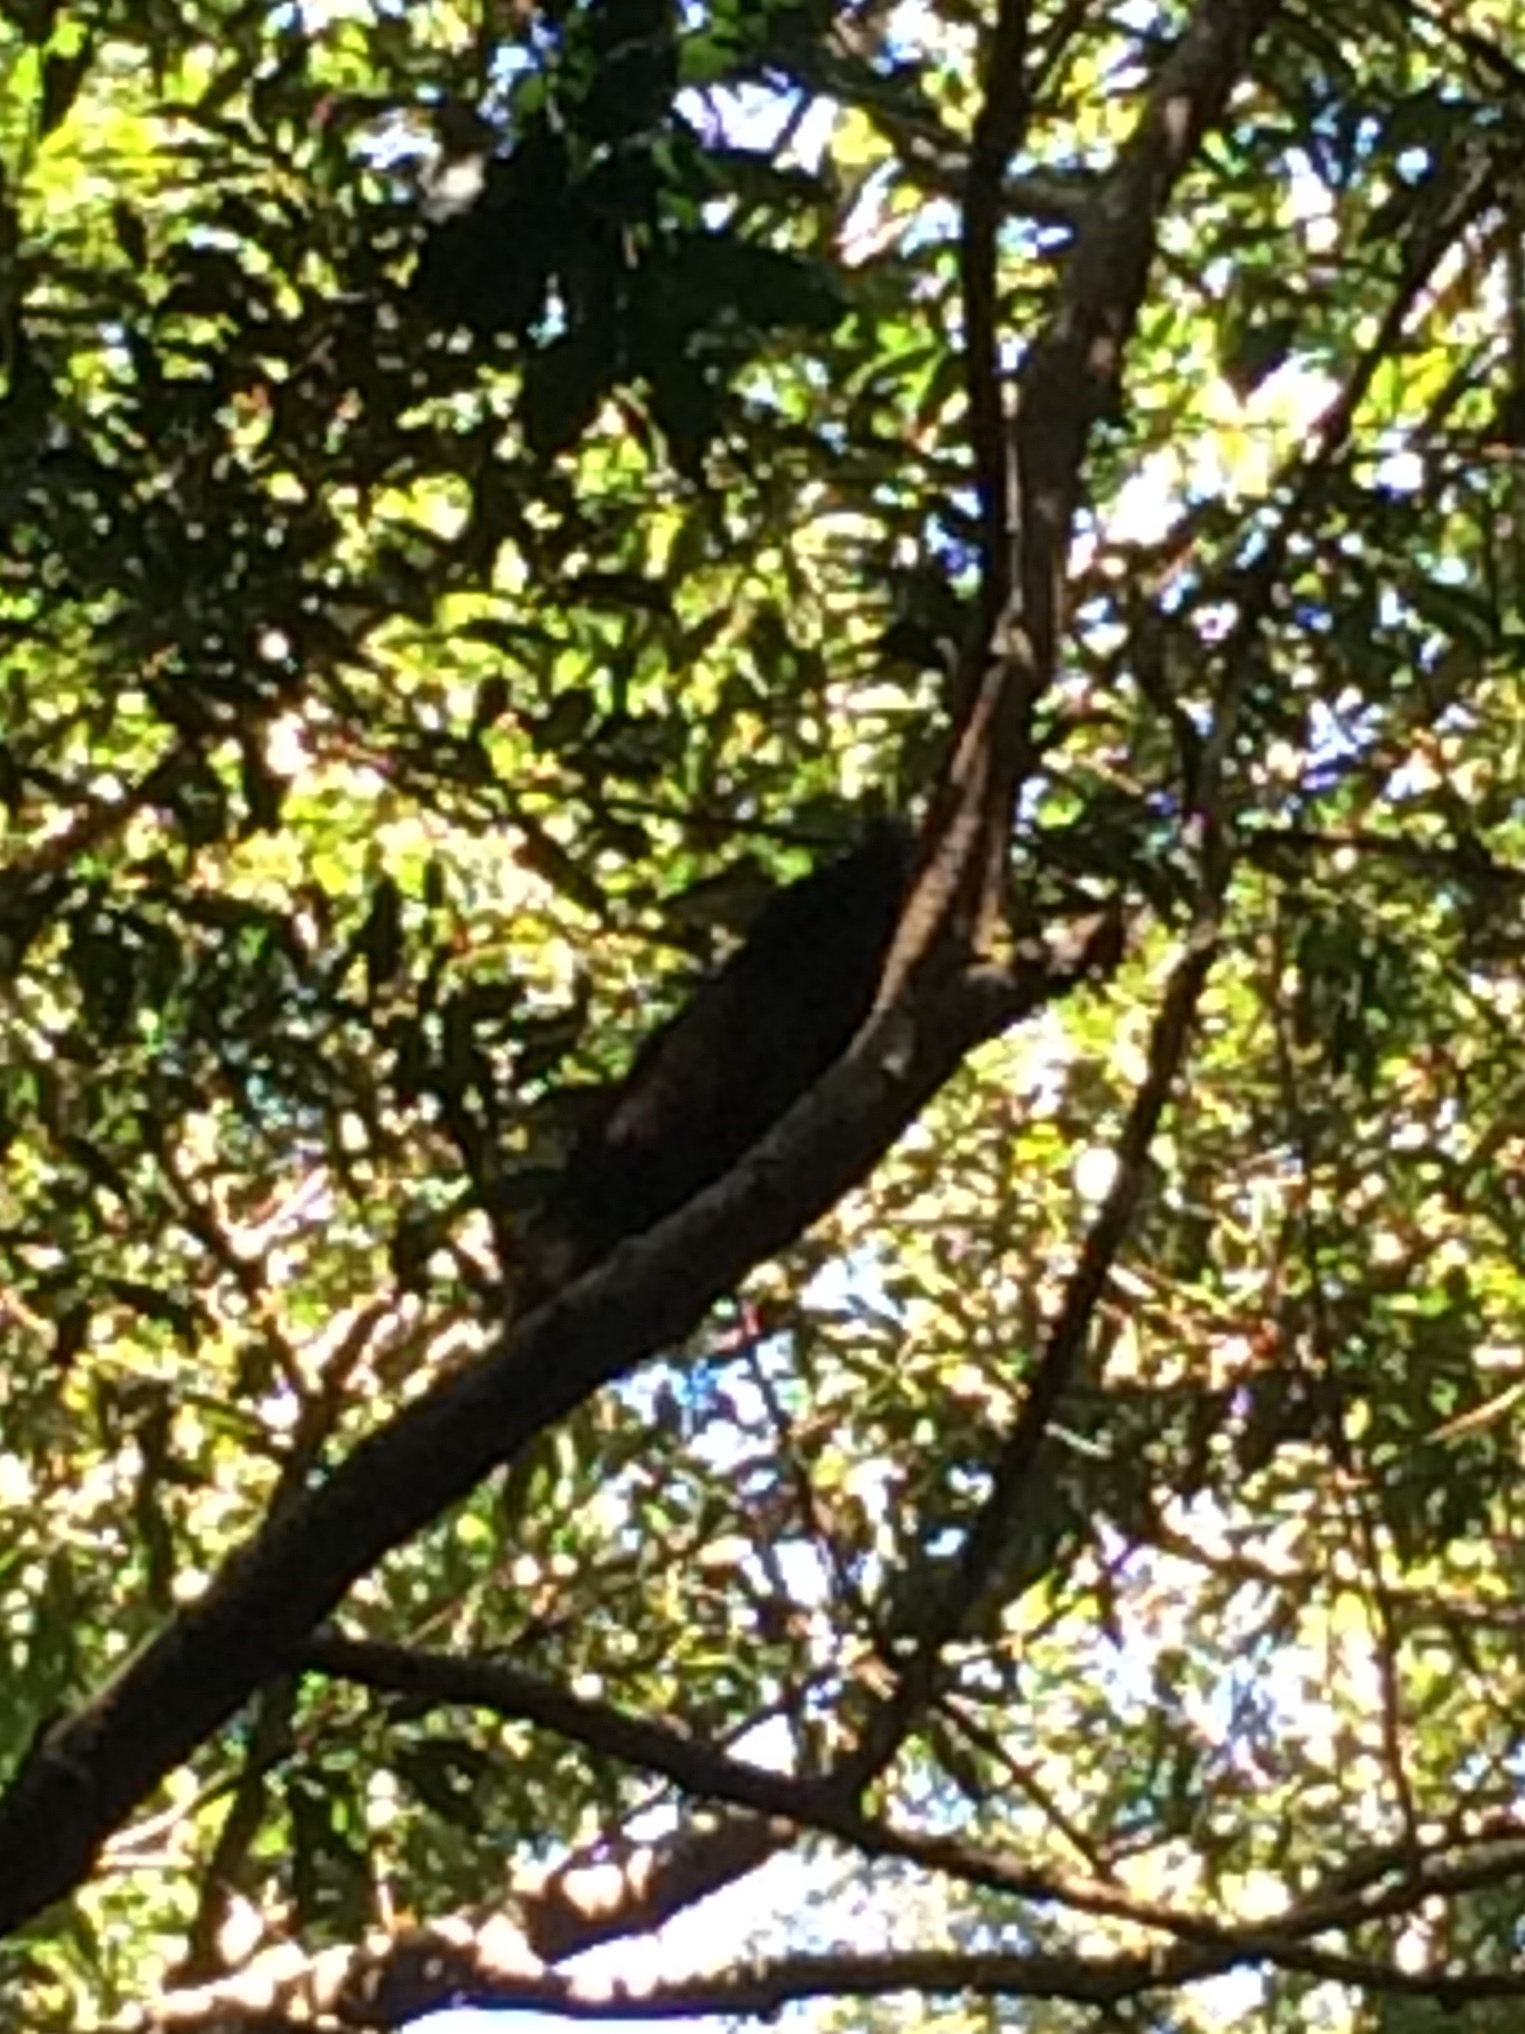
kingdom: Animalia
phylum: Chordata
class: Mammalia
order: Didelphimorphia
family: Didelphidae
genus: Didelphis
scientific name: Didelphis aurita
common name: Big-eared opossum
